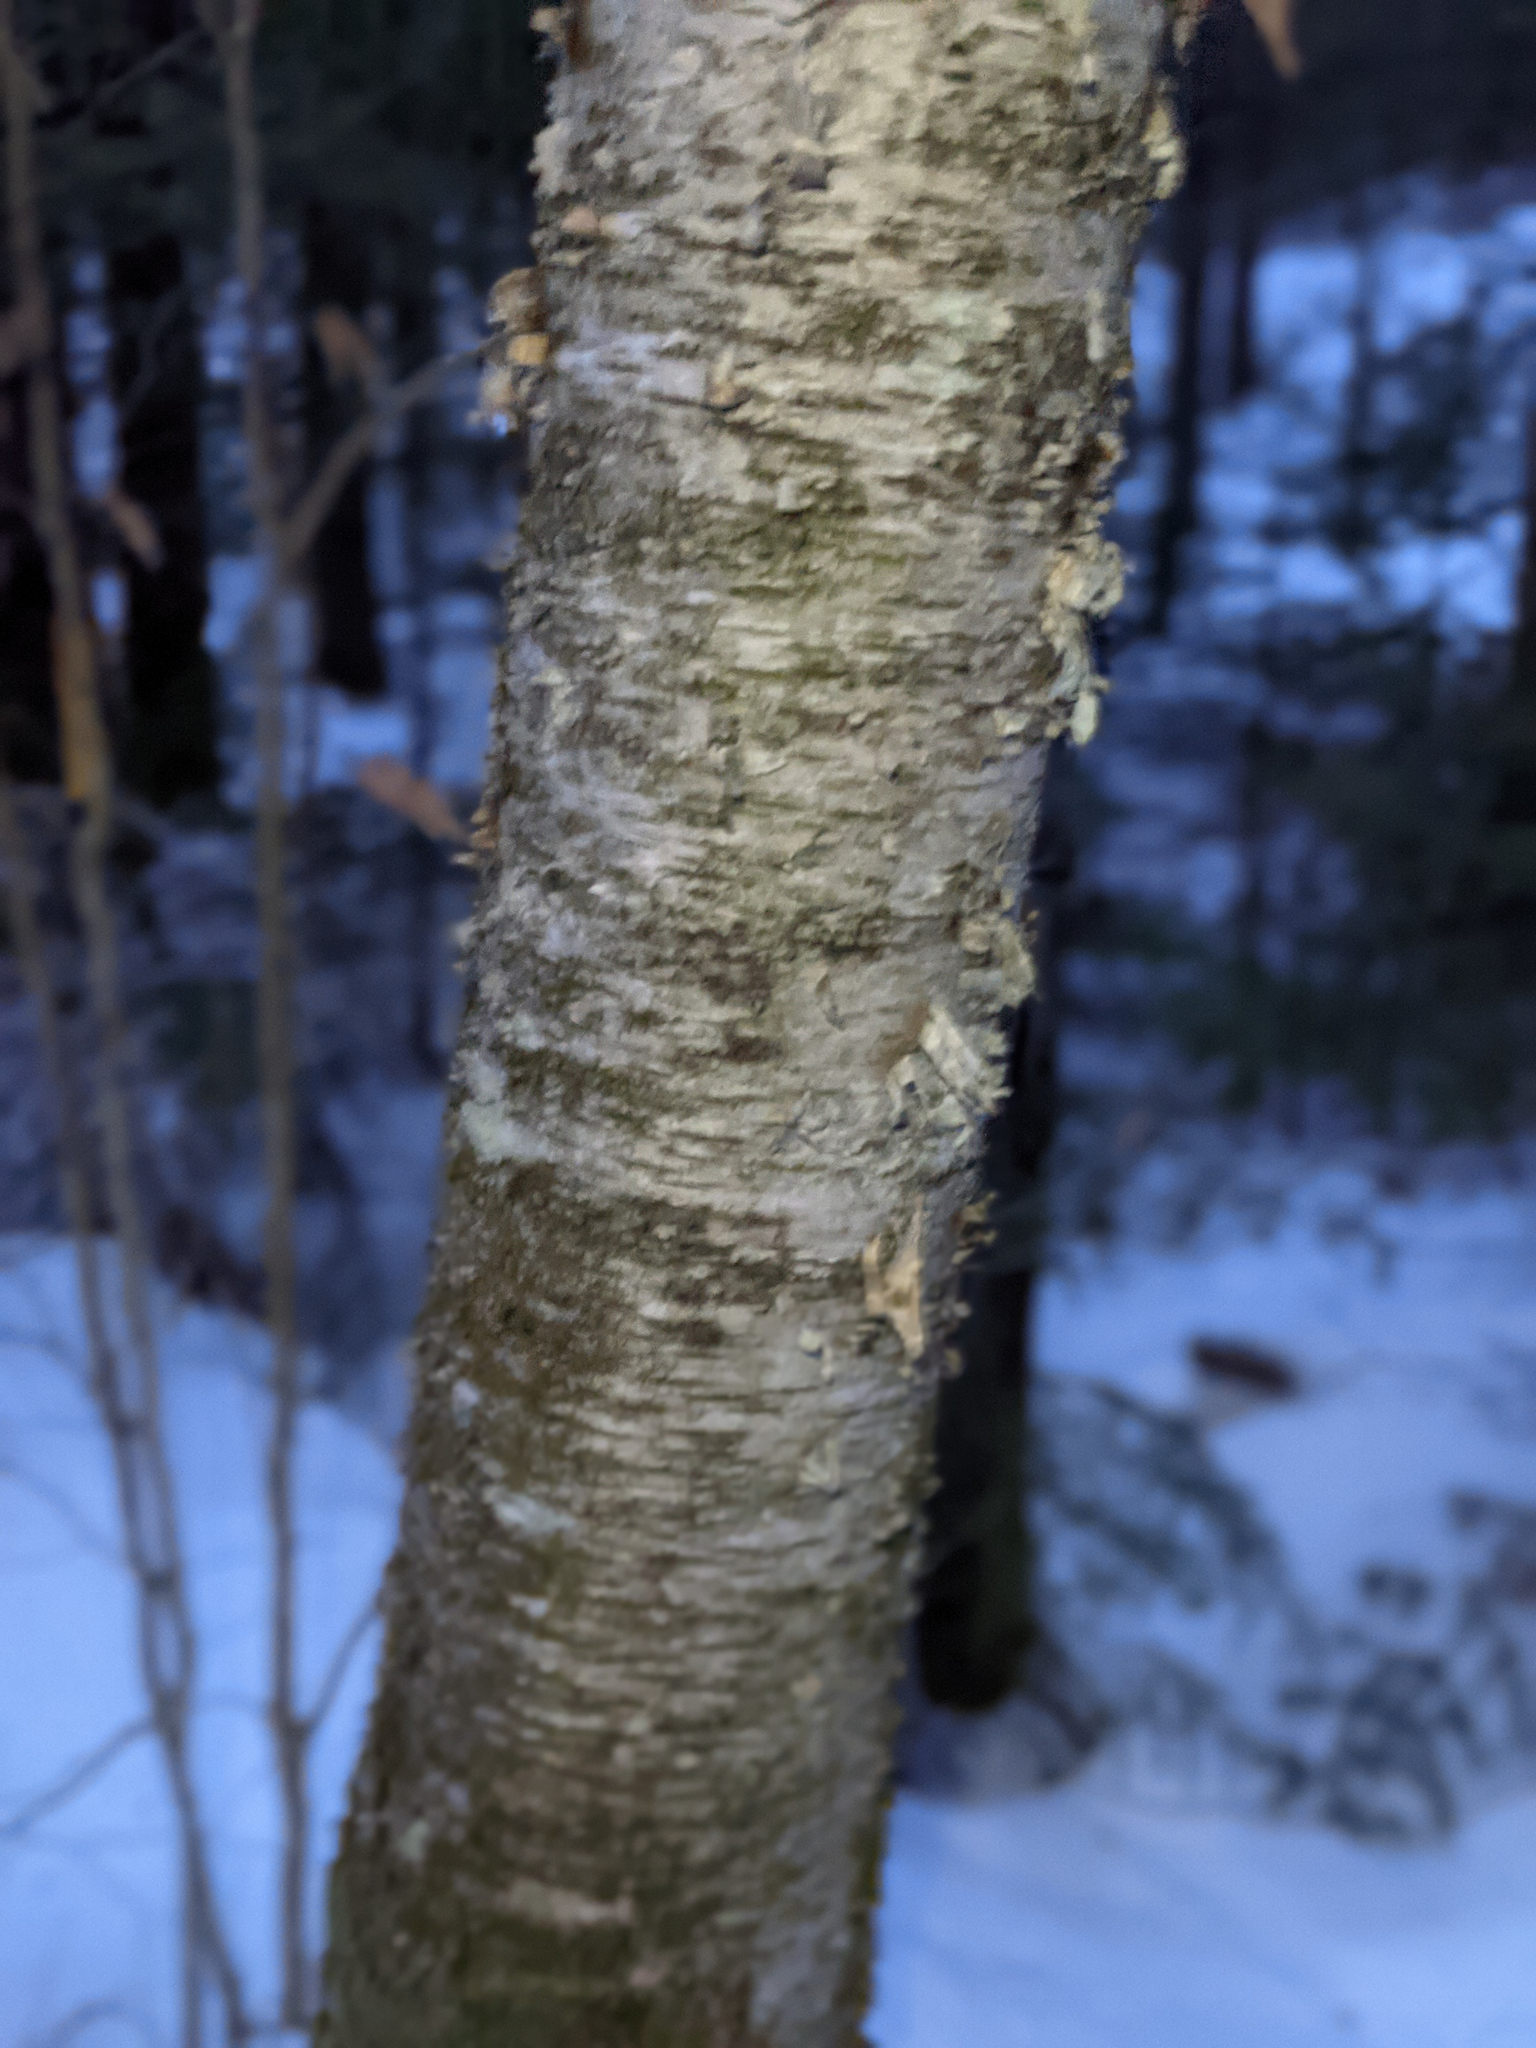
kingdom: Plantae
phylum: Tracheophyta
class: Magnoliopsida
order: Fagales
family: Betulaceae
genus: Betula
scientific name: Betula alleghaniensis
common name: Yellow birch
